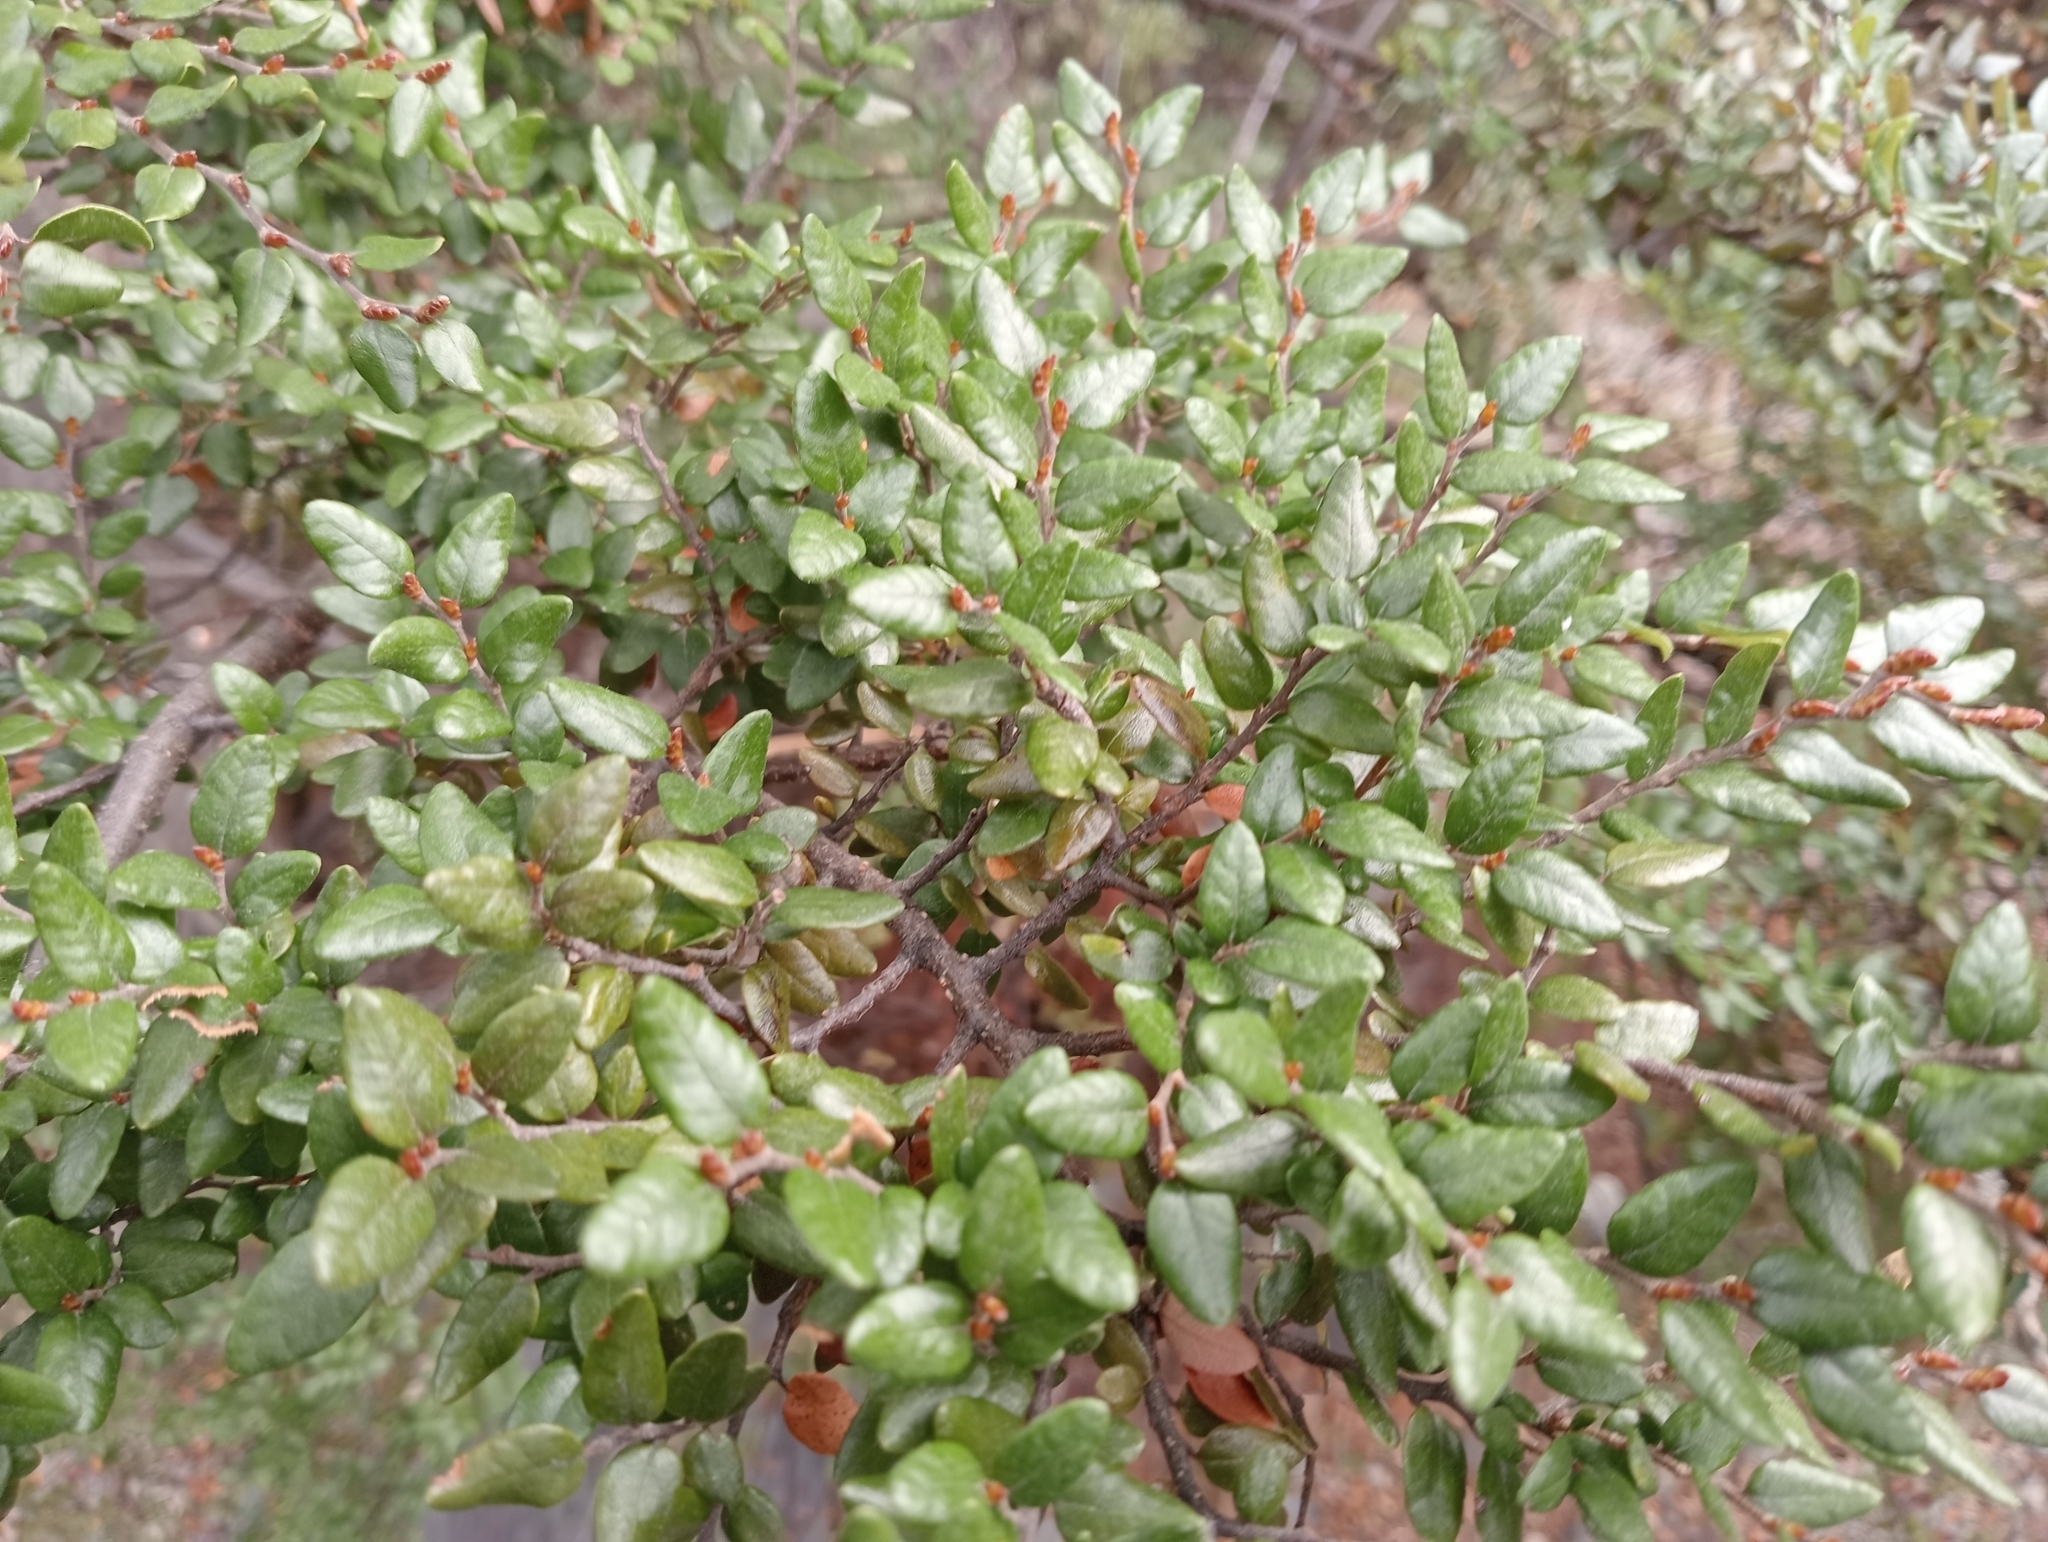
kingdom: Plantae
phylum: Tracheophyta
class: Magnoliopsida
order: Fagales
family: Nothofagaceae
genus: Nothofagus
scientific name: Nothofagus cliffortioides
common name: Mountain beech
